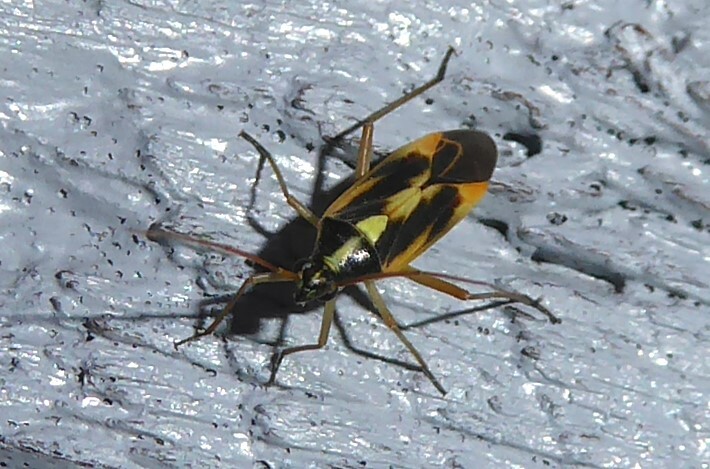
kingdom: Animalia
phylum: Arthropoda
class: Insecta
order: Hemiptera
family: Miridae
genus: Stenotus
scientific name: Stenotus binotatus
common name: Plant bug
